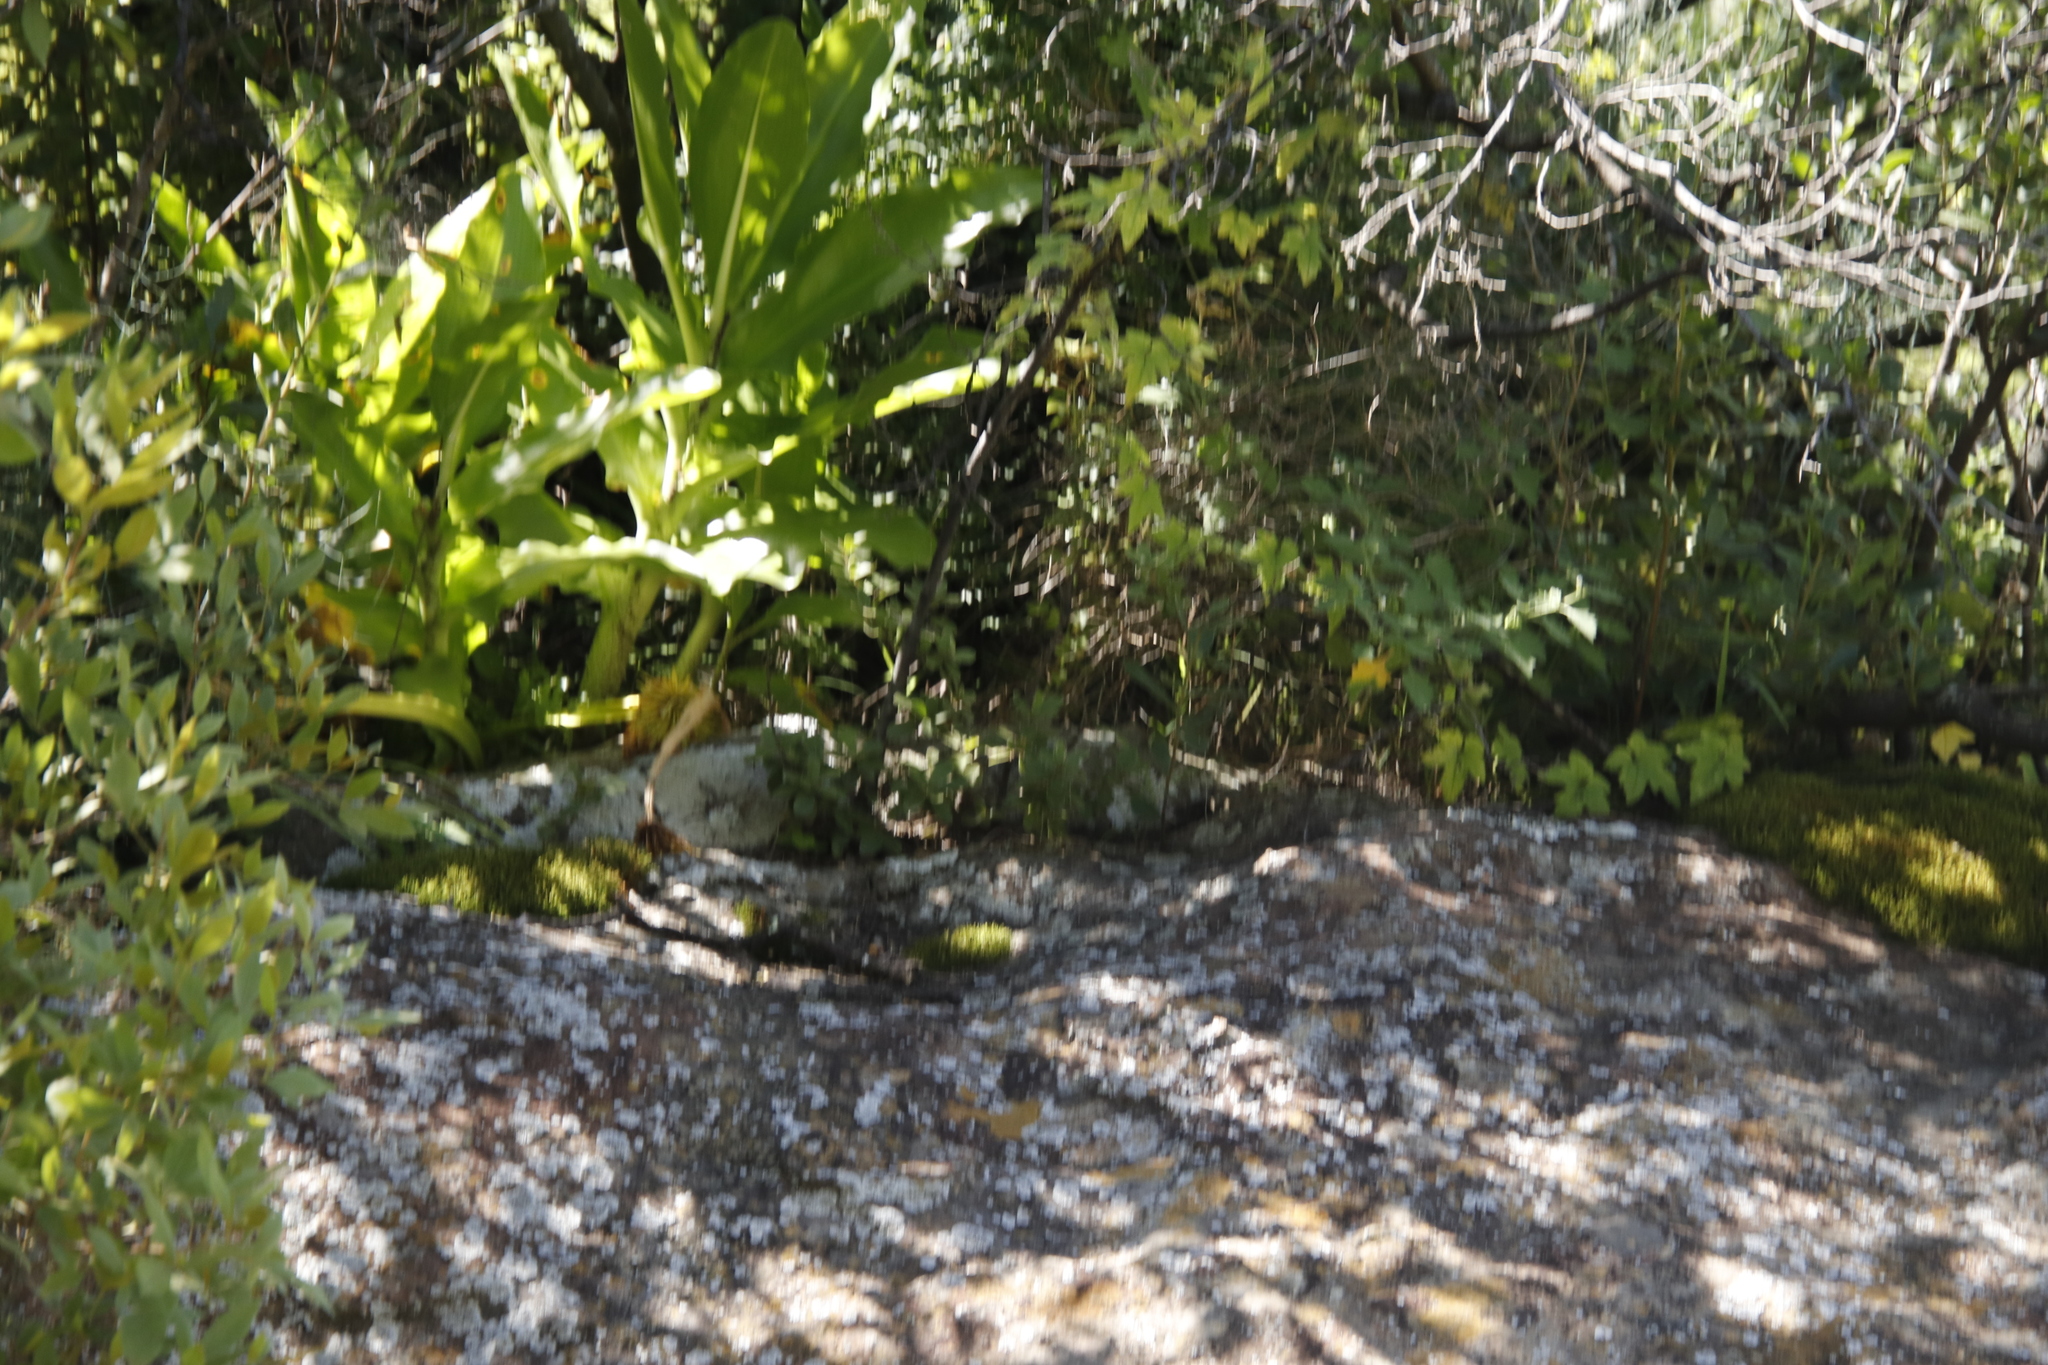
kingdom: Plantae
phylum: Tracheophyta
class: Liliopsida
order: Asparagales
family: Amaryllidaceae
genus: Scadoxus
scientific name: Scadoxus puniceus
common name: Royal-paintbrush
